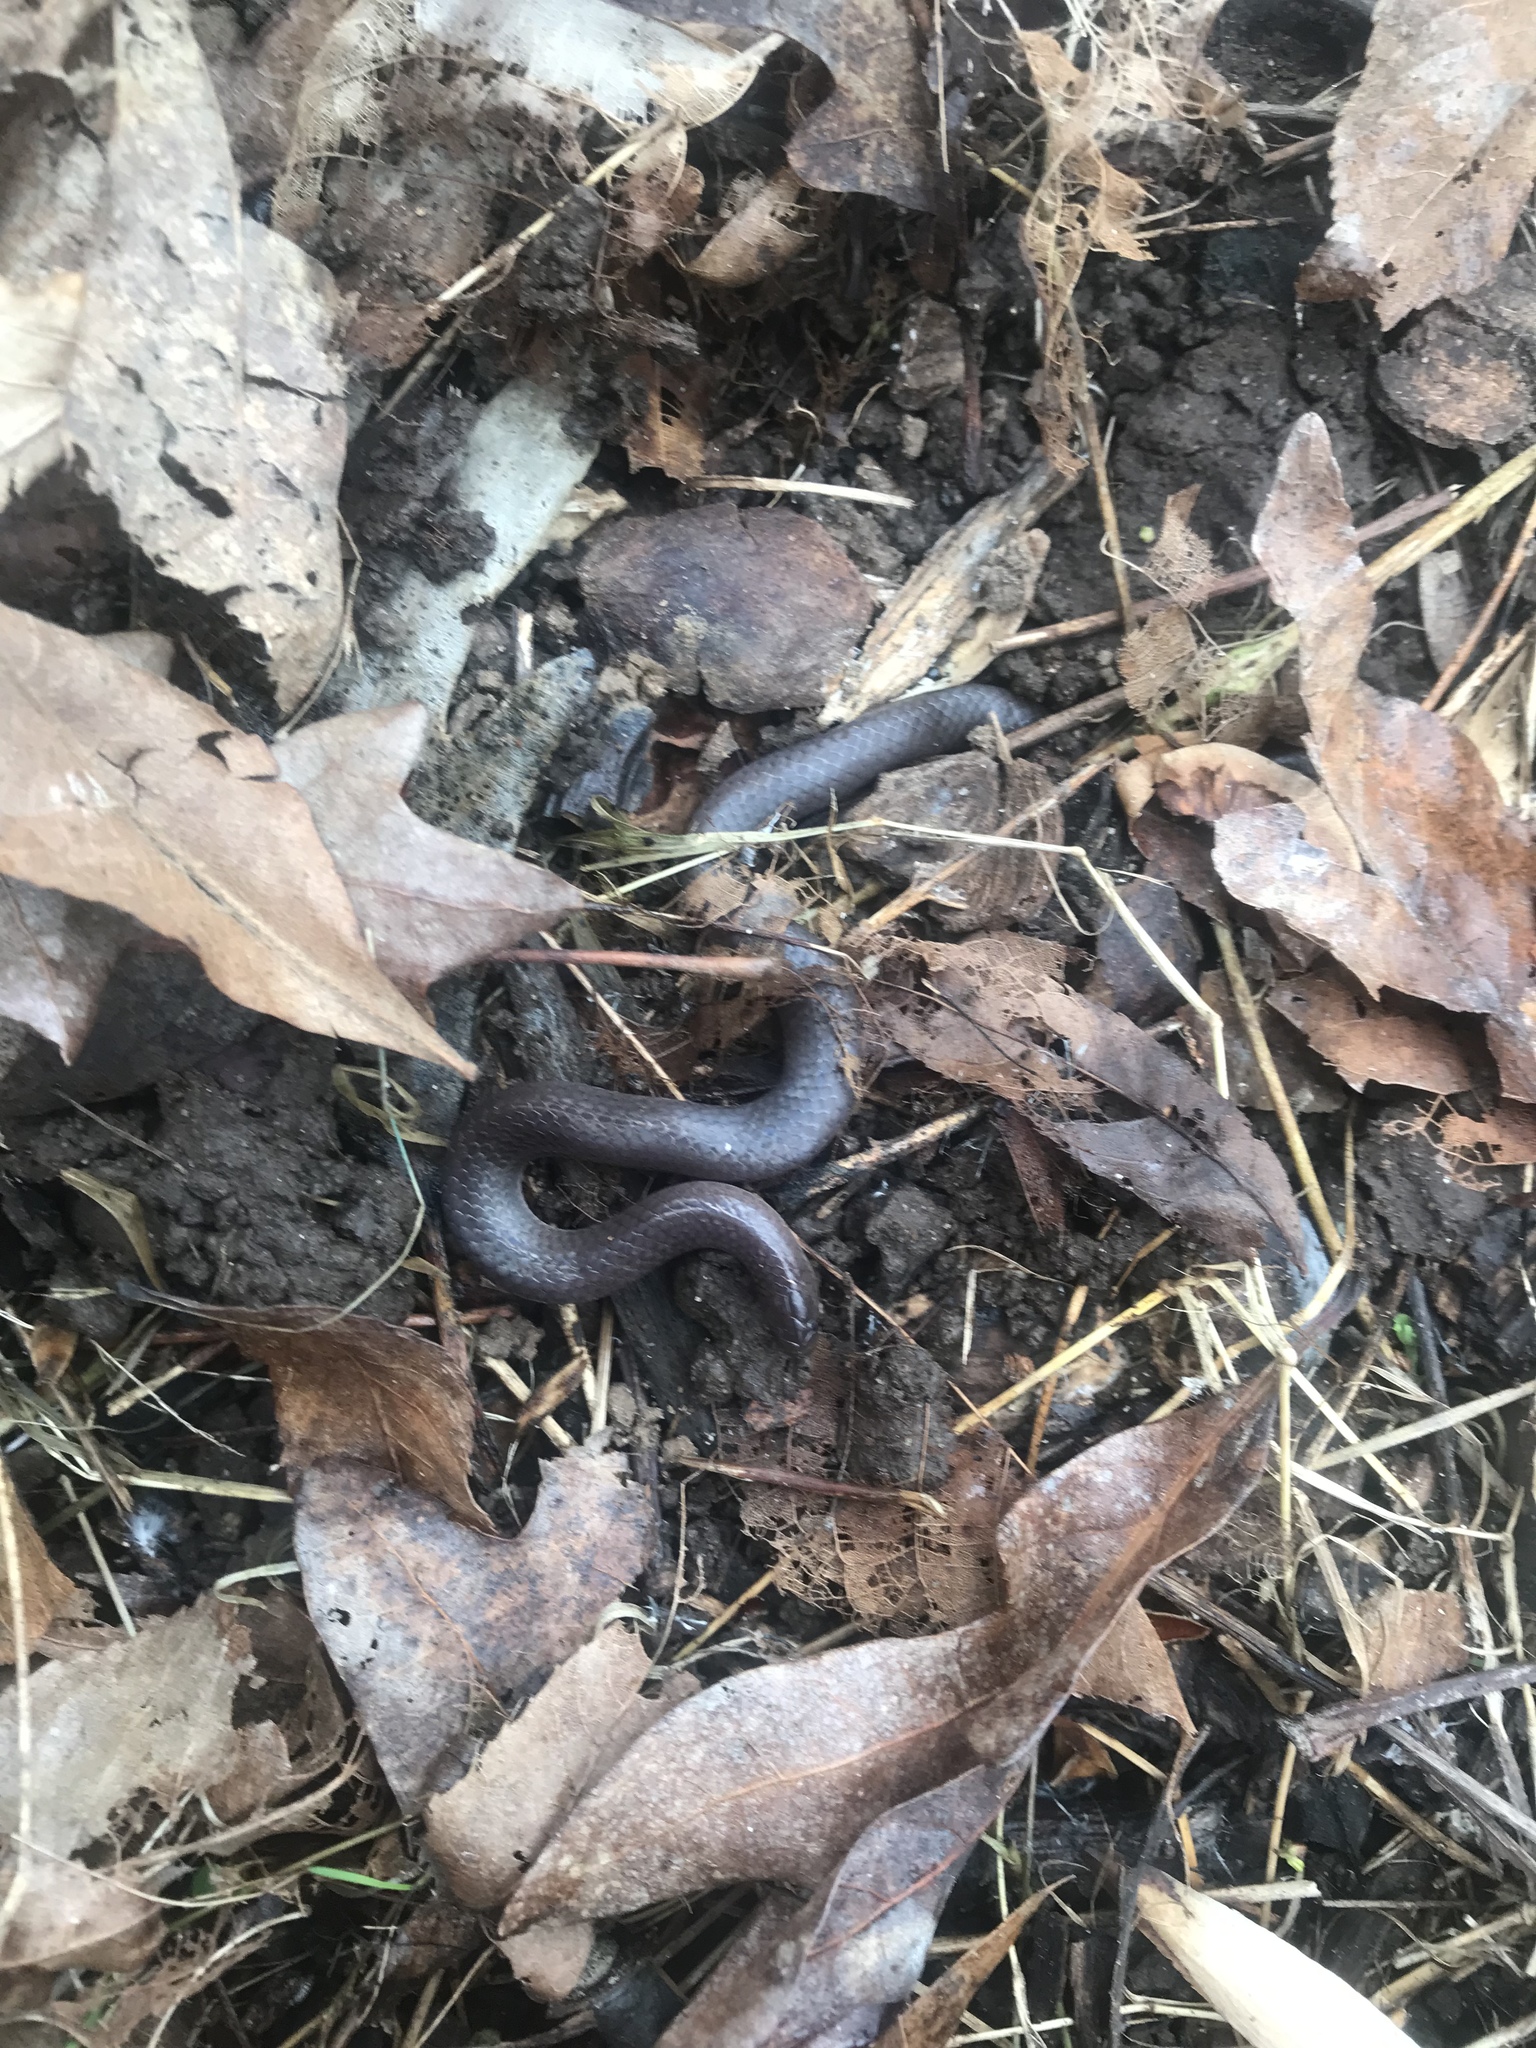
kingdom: Animalia
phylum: Chordata
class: Squamata
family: Colubridae
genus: Carphophis
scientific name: Carphophis amoenus
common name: Eastern worm snake
